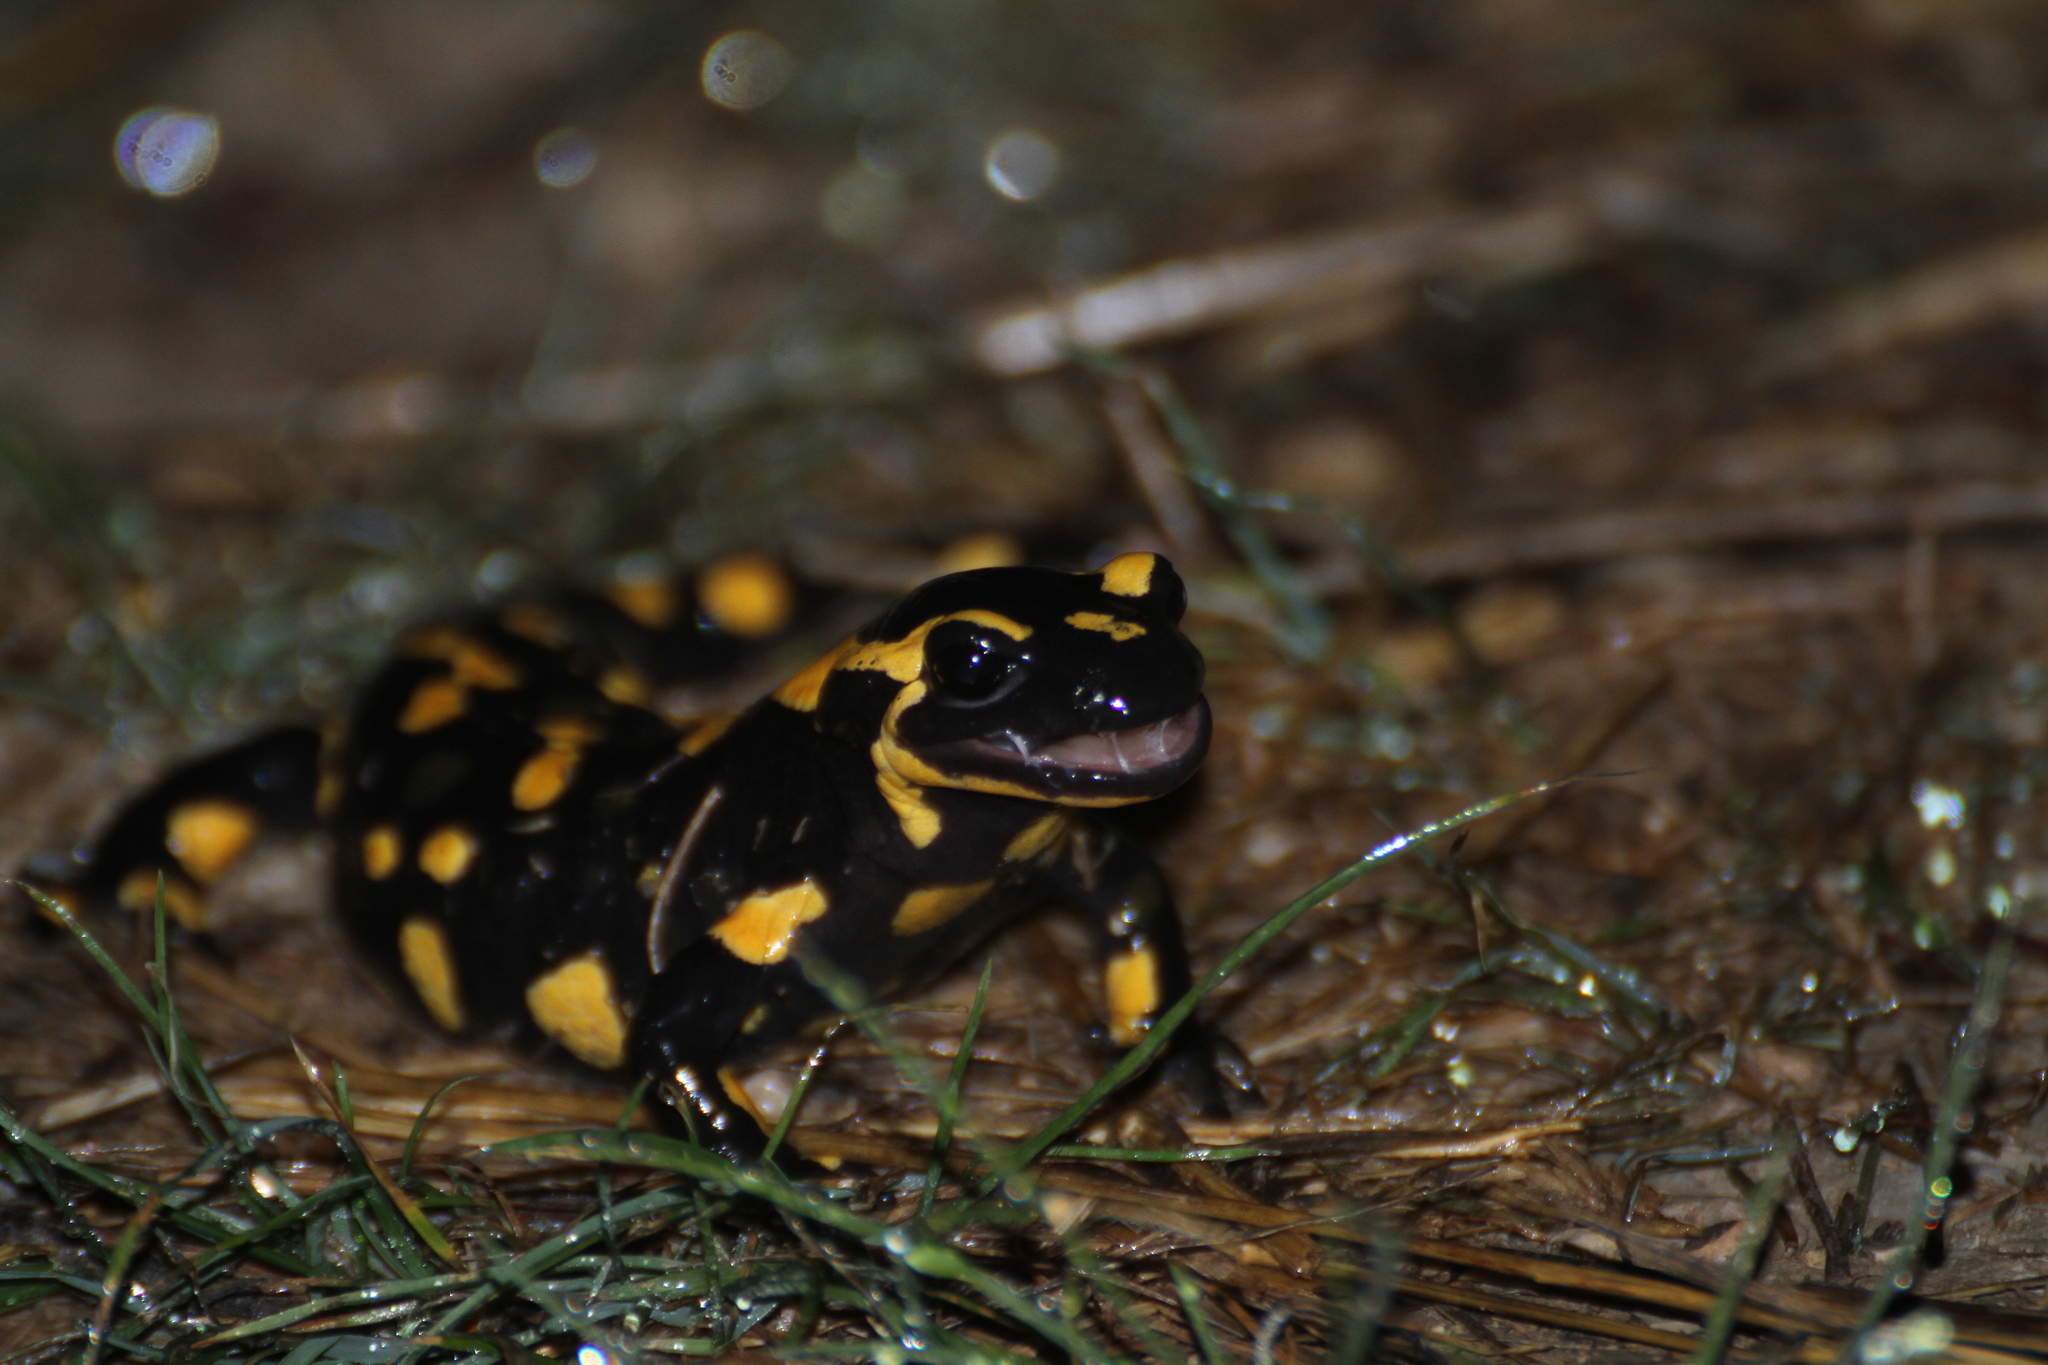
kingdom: Animalia
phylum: Chordata
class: Amphibia
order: Caudata
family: Salamandridae
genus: Salamandra
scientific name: Salamandra salamandra
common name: Fire salamander
